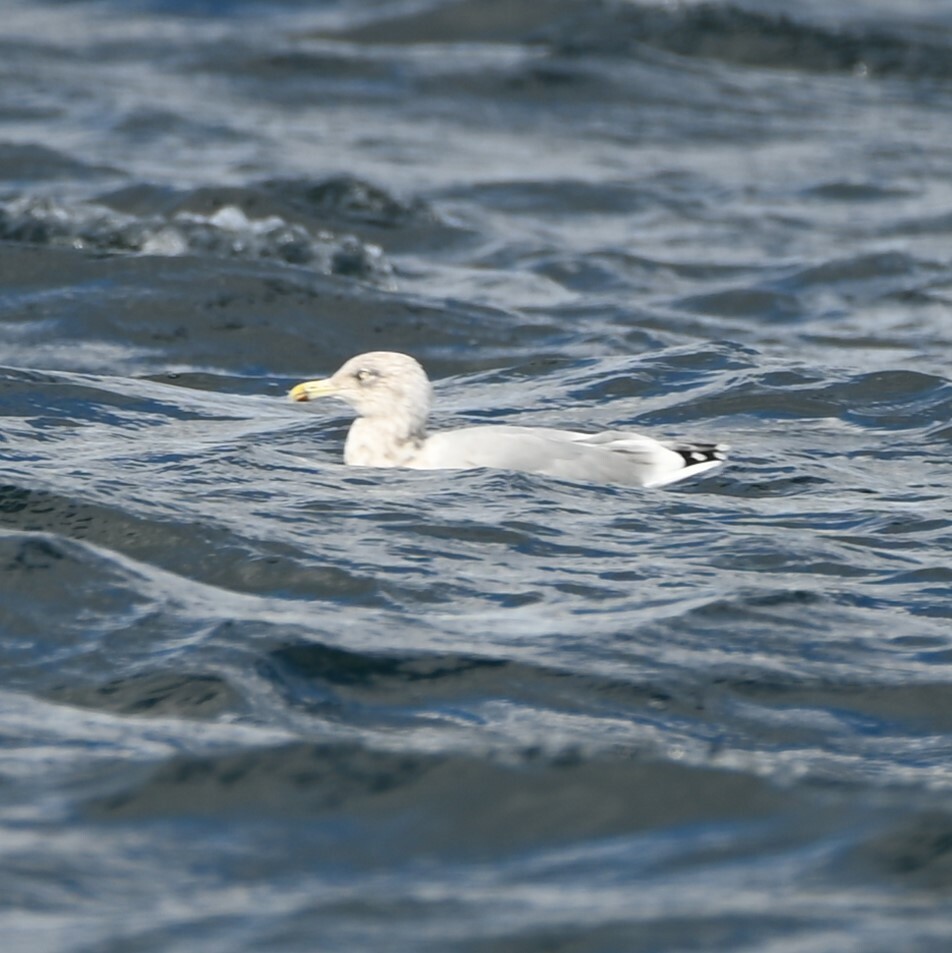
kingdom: Animalia
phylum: Chordata
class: Aves
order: Charadriiformes
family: Laridae
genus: Larus
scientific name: Larus argentatus
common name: Herring gull
